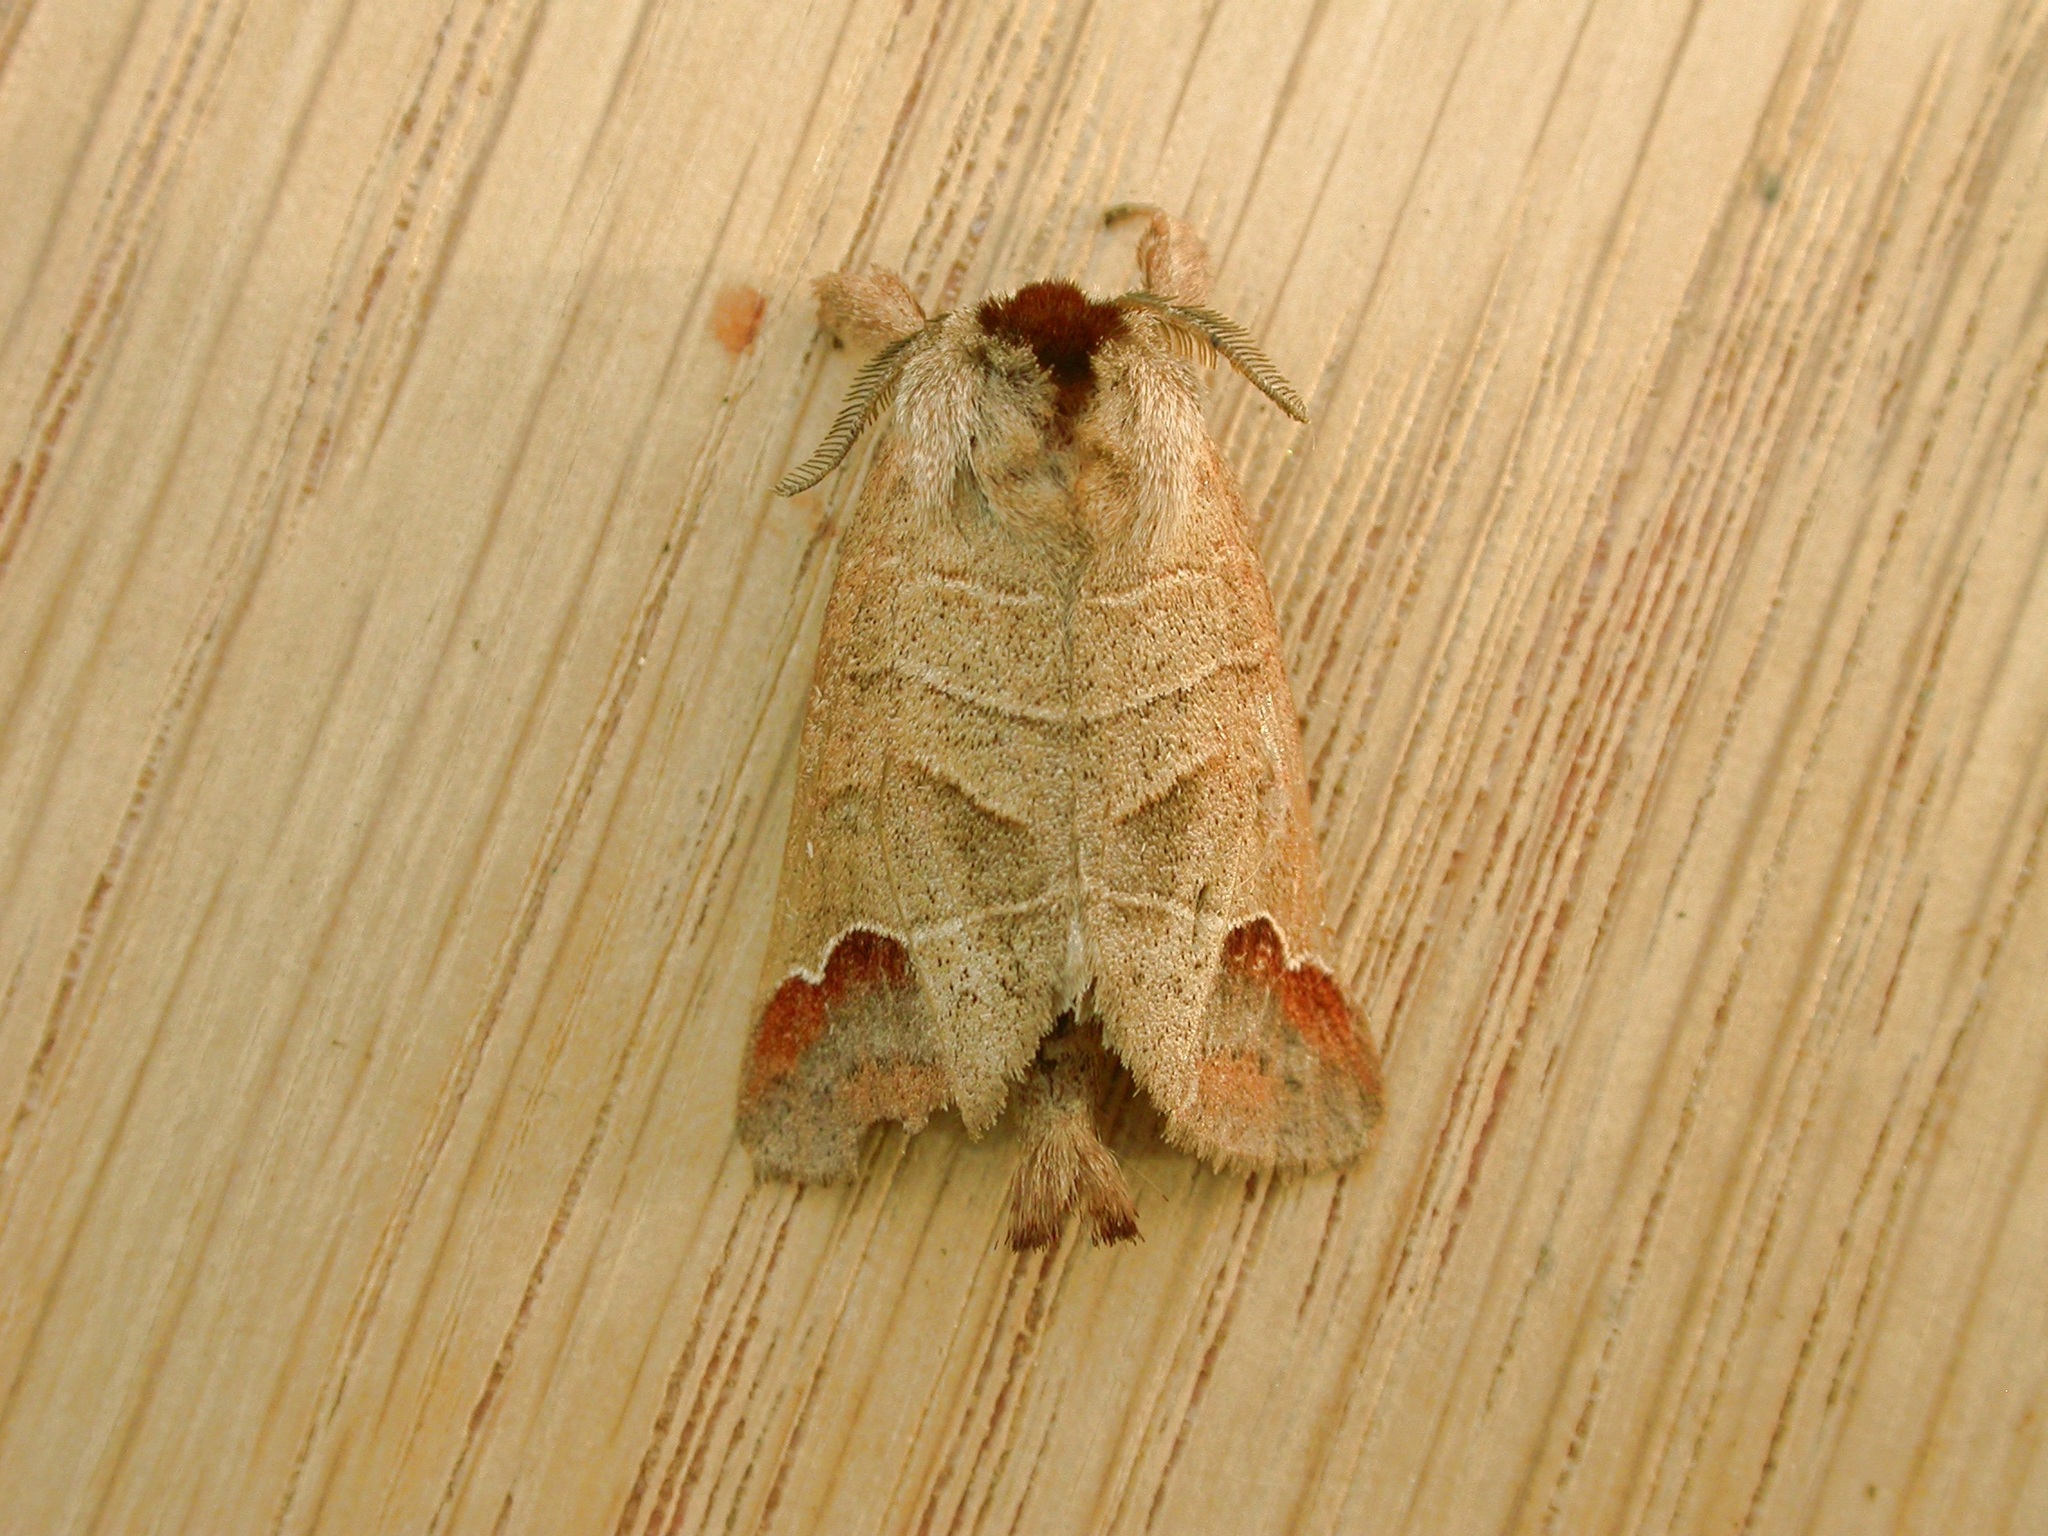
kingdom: Animalia
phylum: Arthropoda
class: Insecta
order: Lepidoptera
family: Notodontidae
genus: Clostera
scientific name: Clostera curtula
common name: Chocolate-tip
